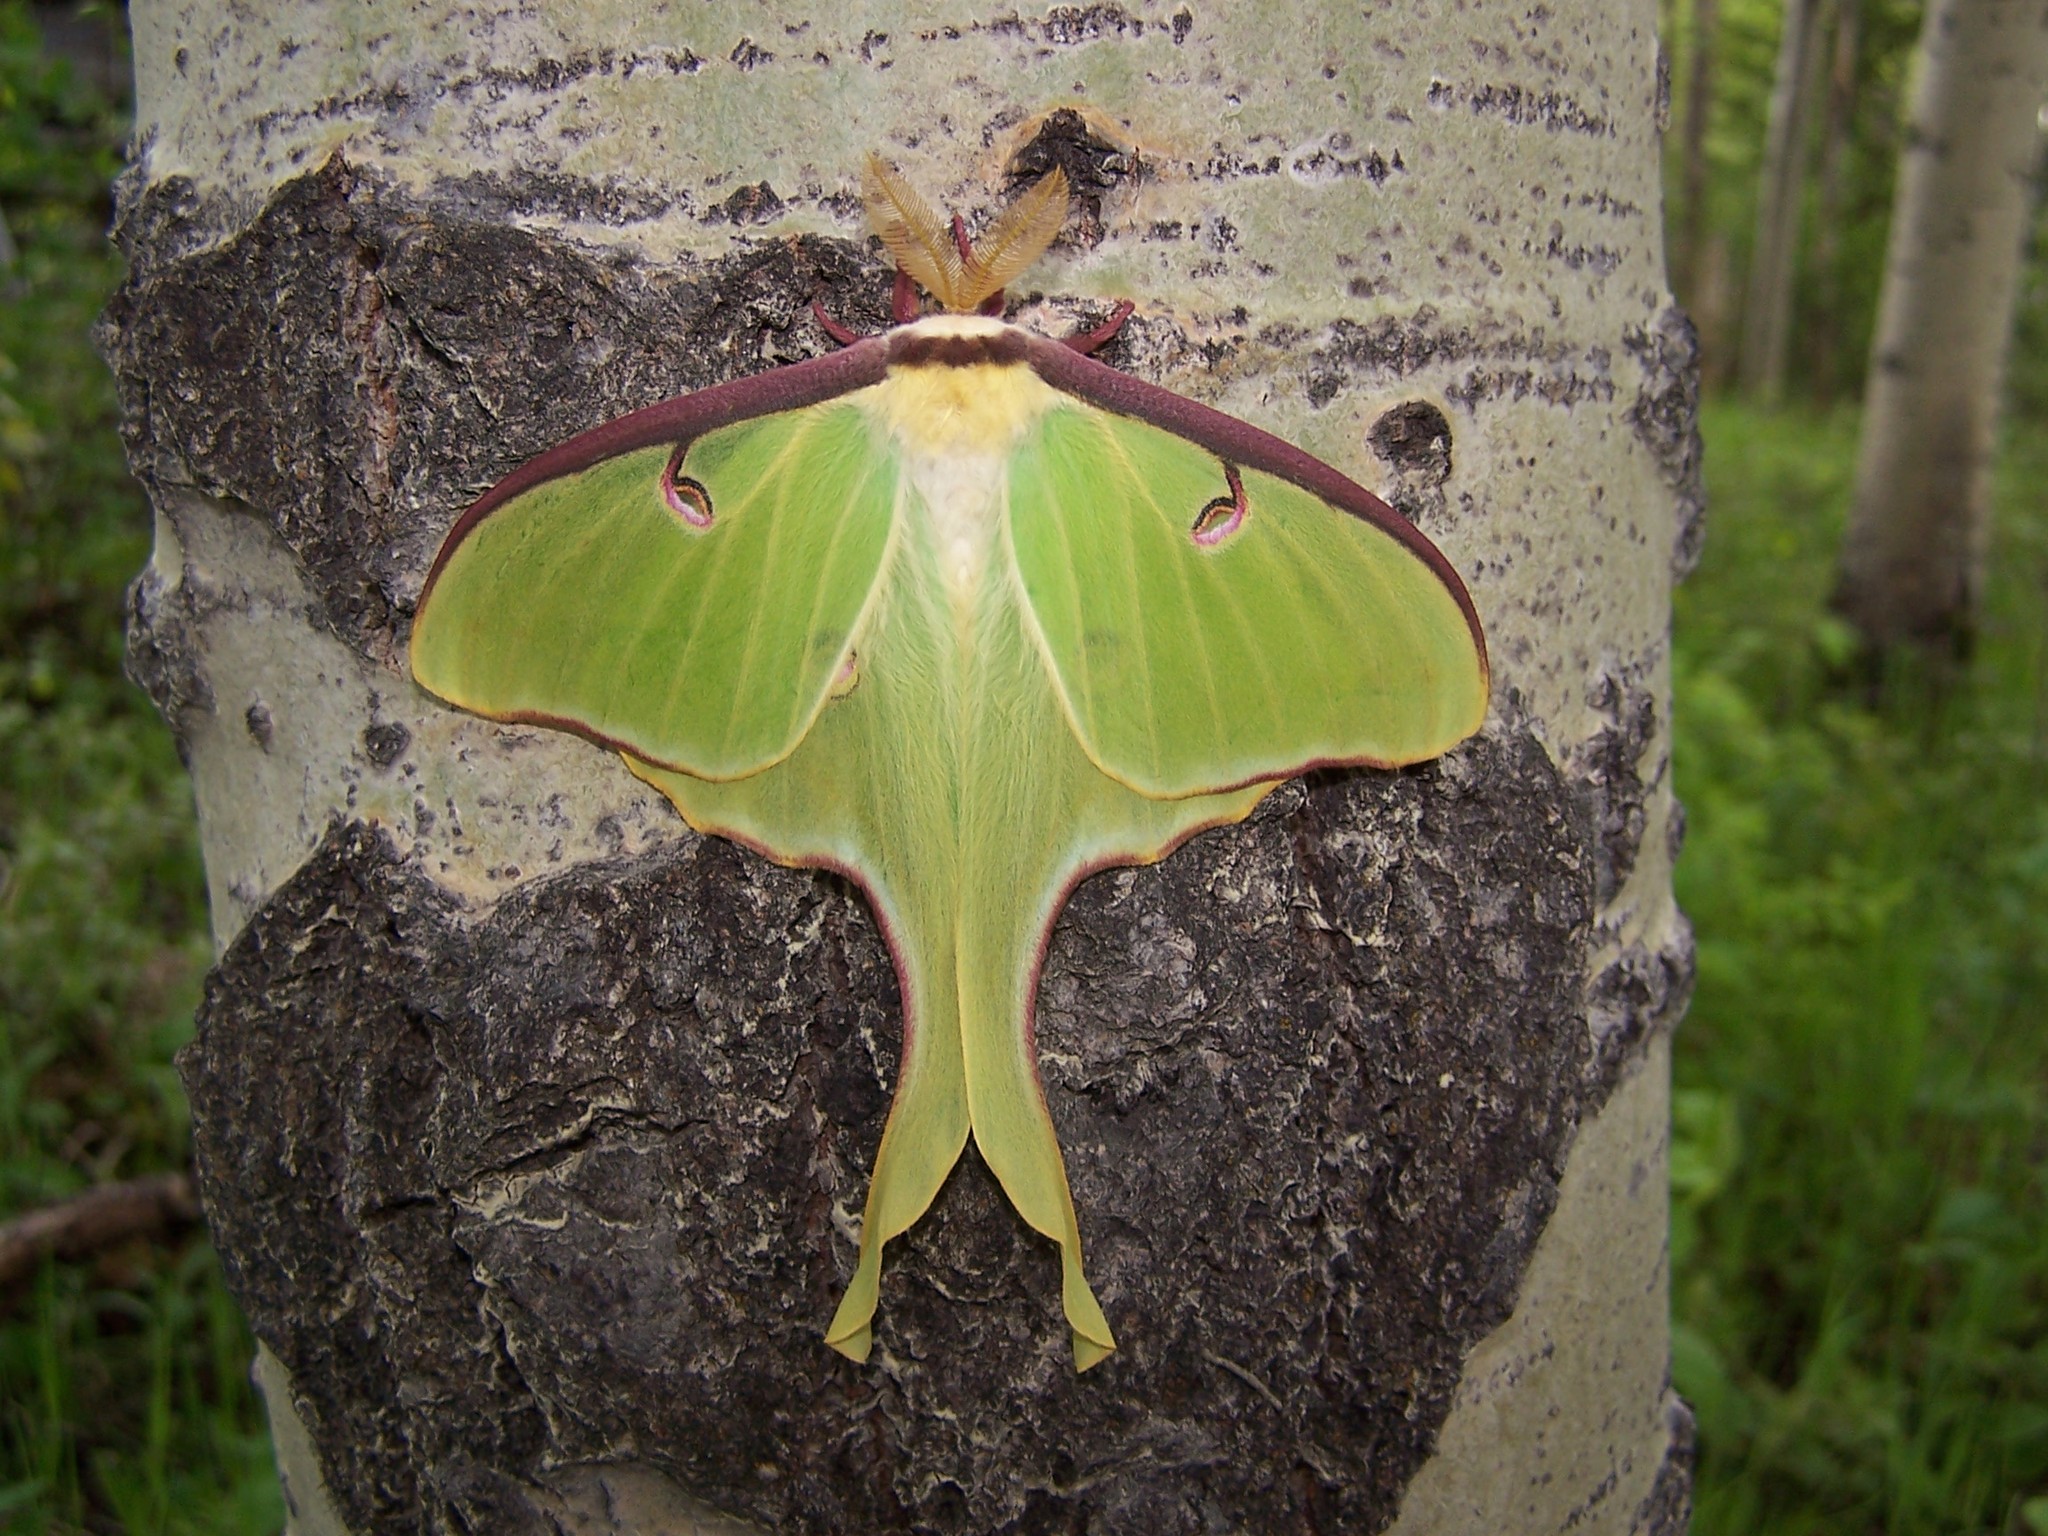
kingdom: Animalia
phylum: Arthropoda
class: Insecta
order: Lepidoptera
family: Saturniidae
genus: Actias
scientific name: Actias luna
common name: Luna moth
